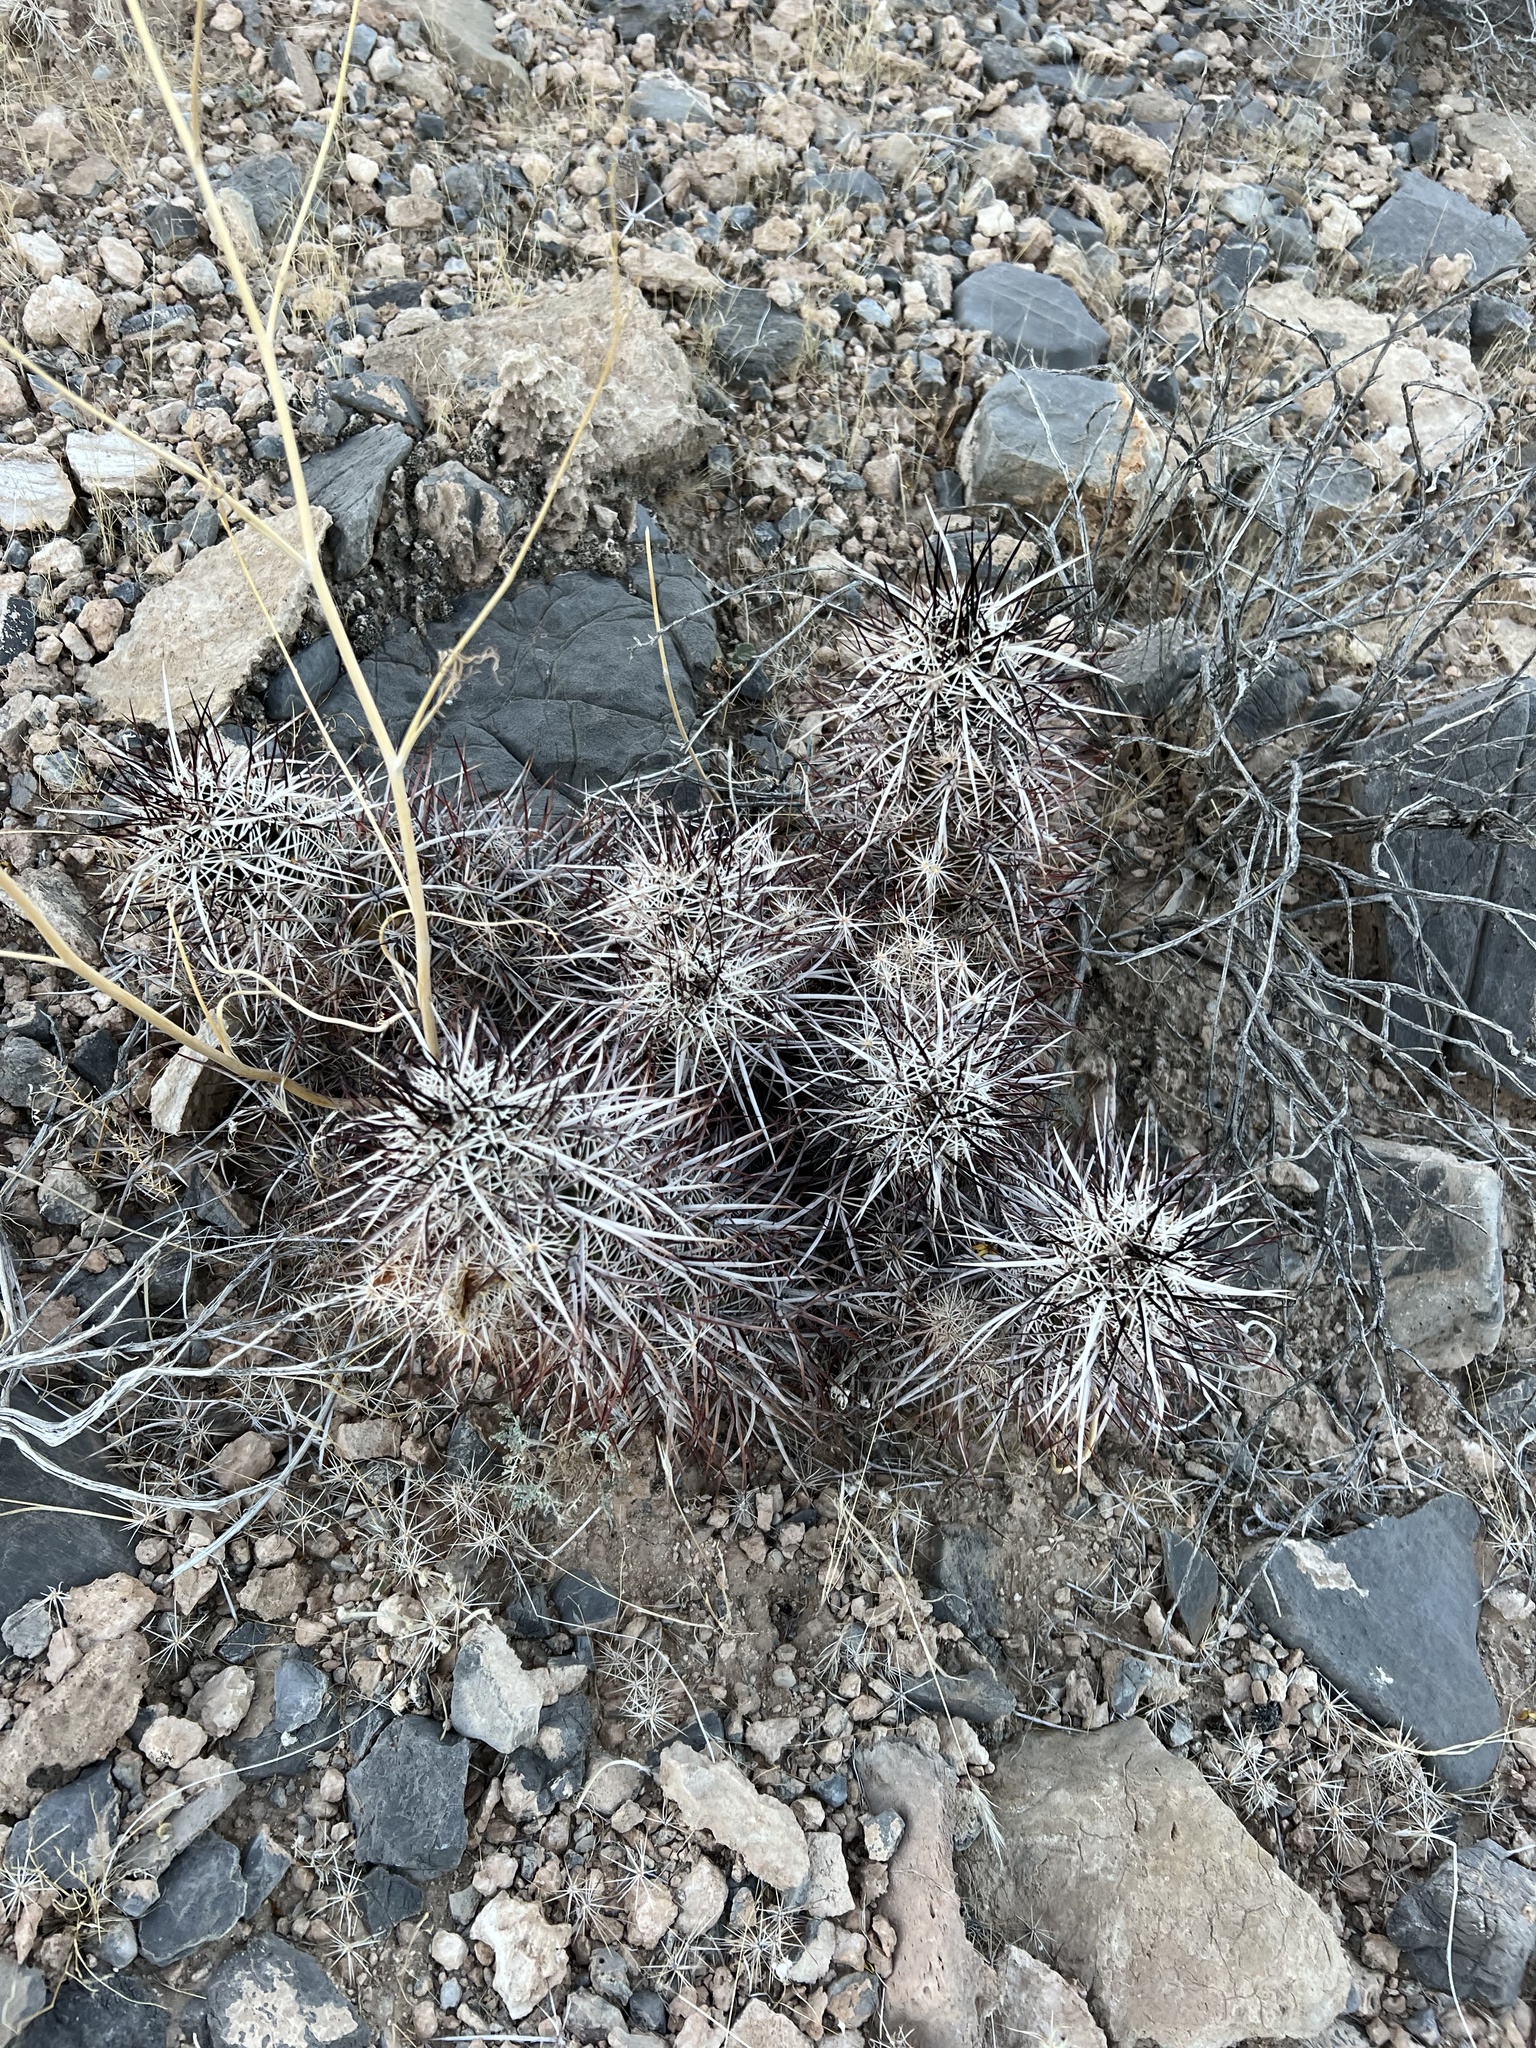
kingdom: Plantae
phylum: Tracheophyta
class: Magnoliopsida
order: Caryophyllales
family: Cactaceae
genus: Echinocereus
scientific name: Echinocereus engelmannii
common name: Engelmann's hedgehog cactus
